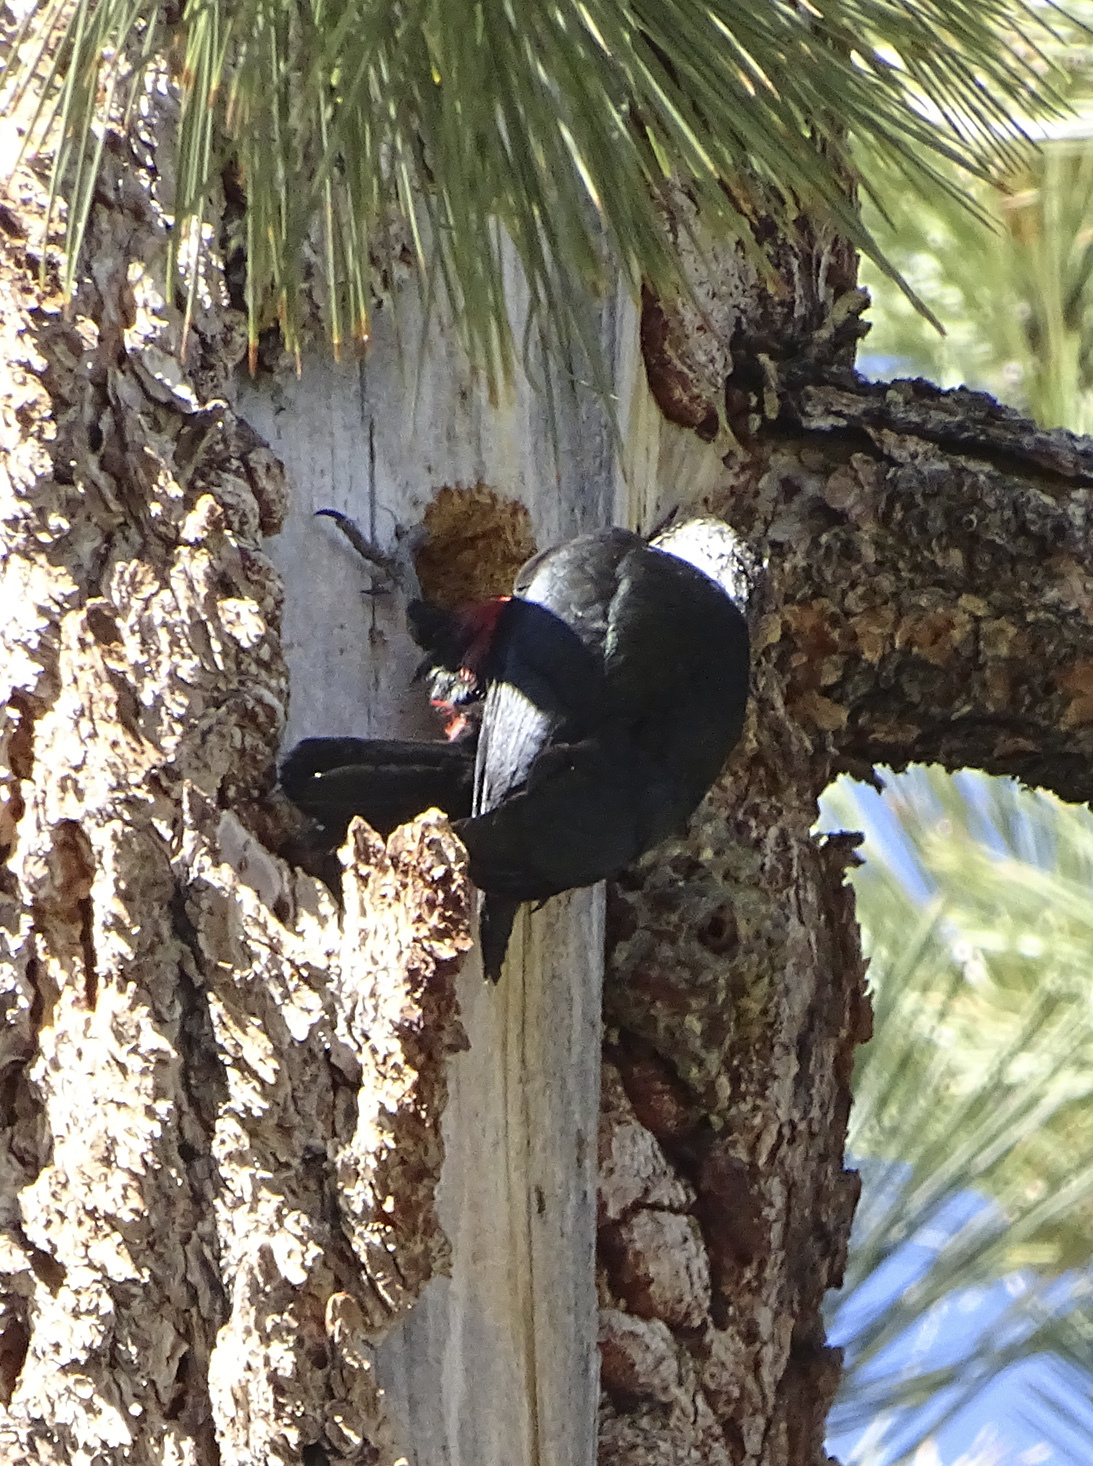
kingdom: Animalia
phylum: Chordata
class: Aves
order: Piciformes
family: Picidae
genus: Melanerpes
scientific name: Melanerpes lewis
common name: Lewis's woodpecker
